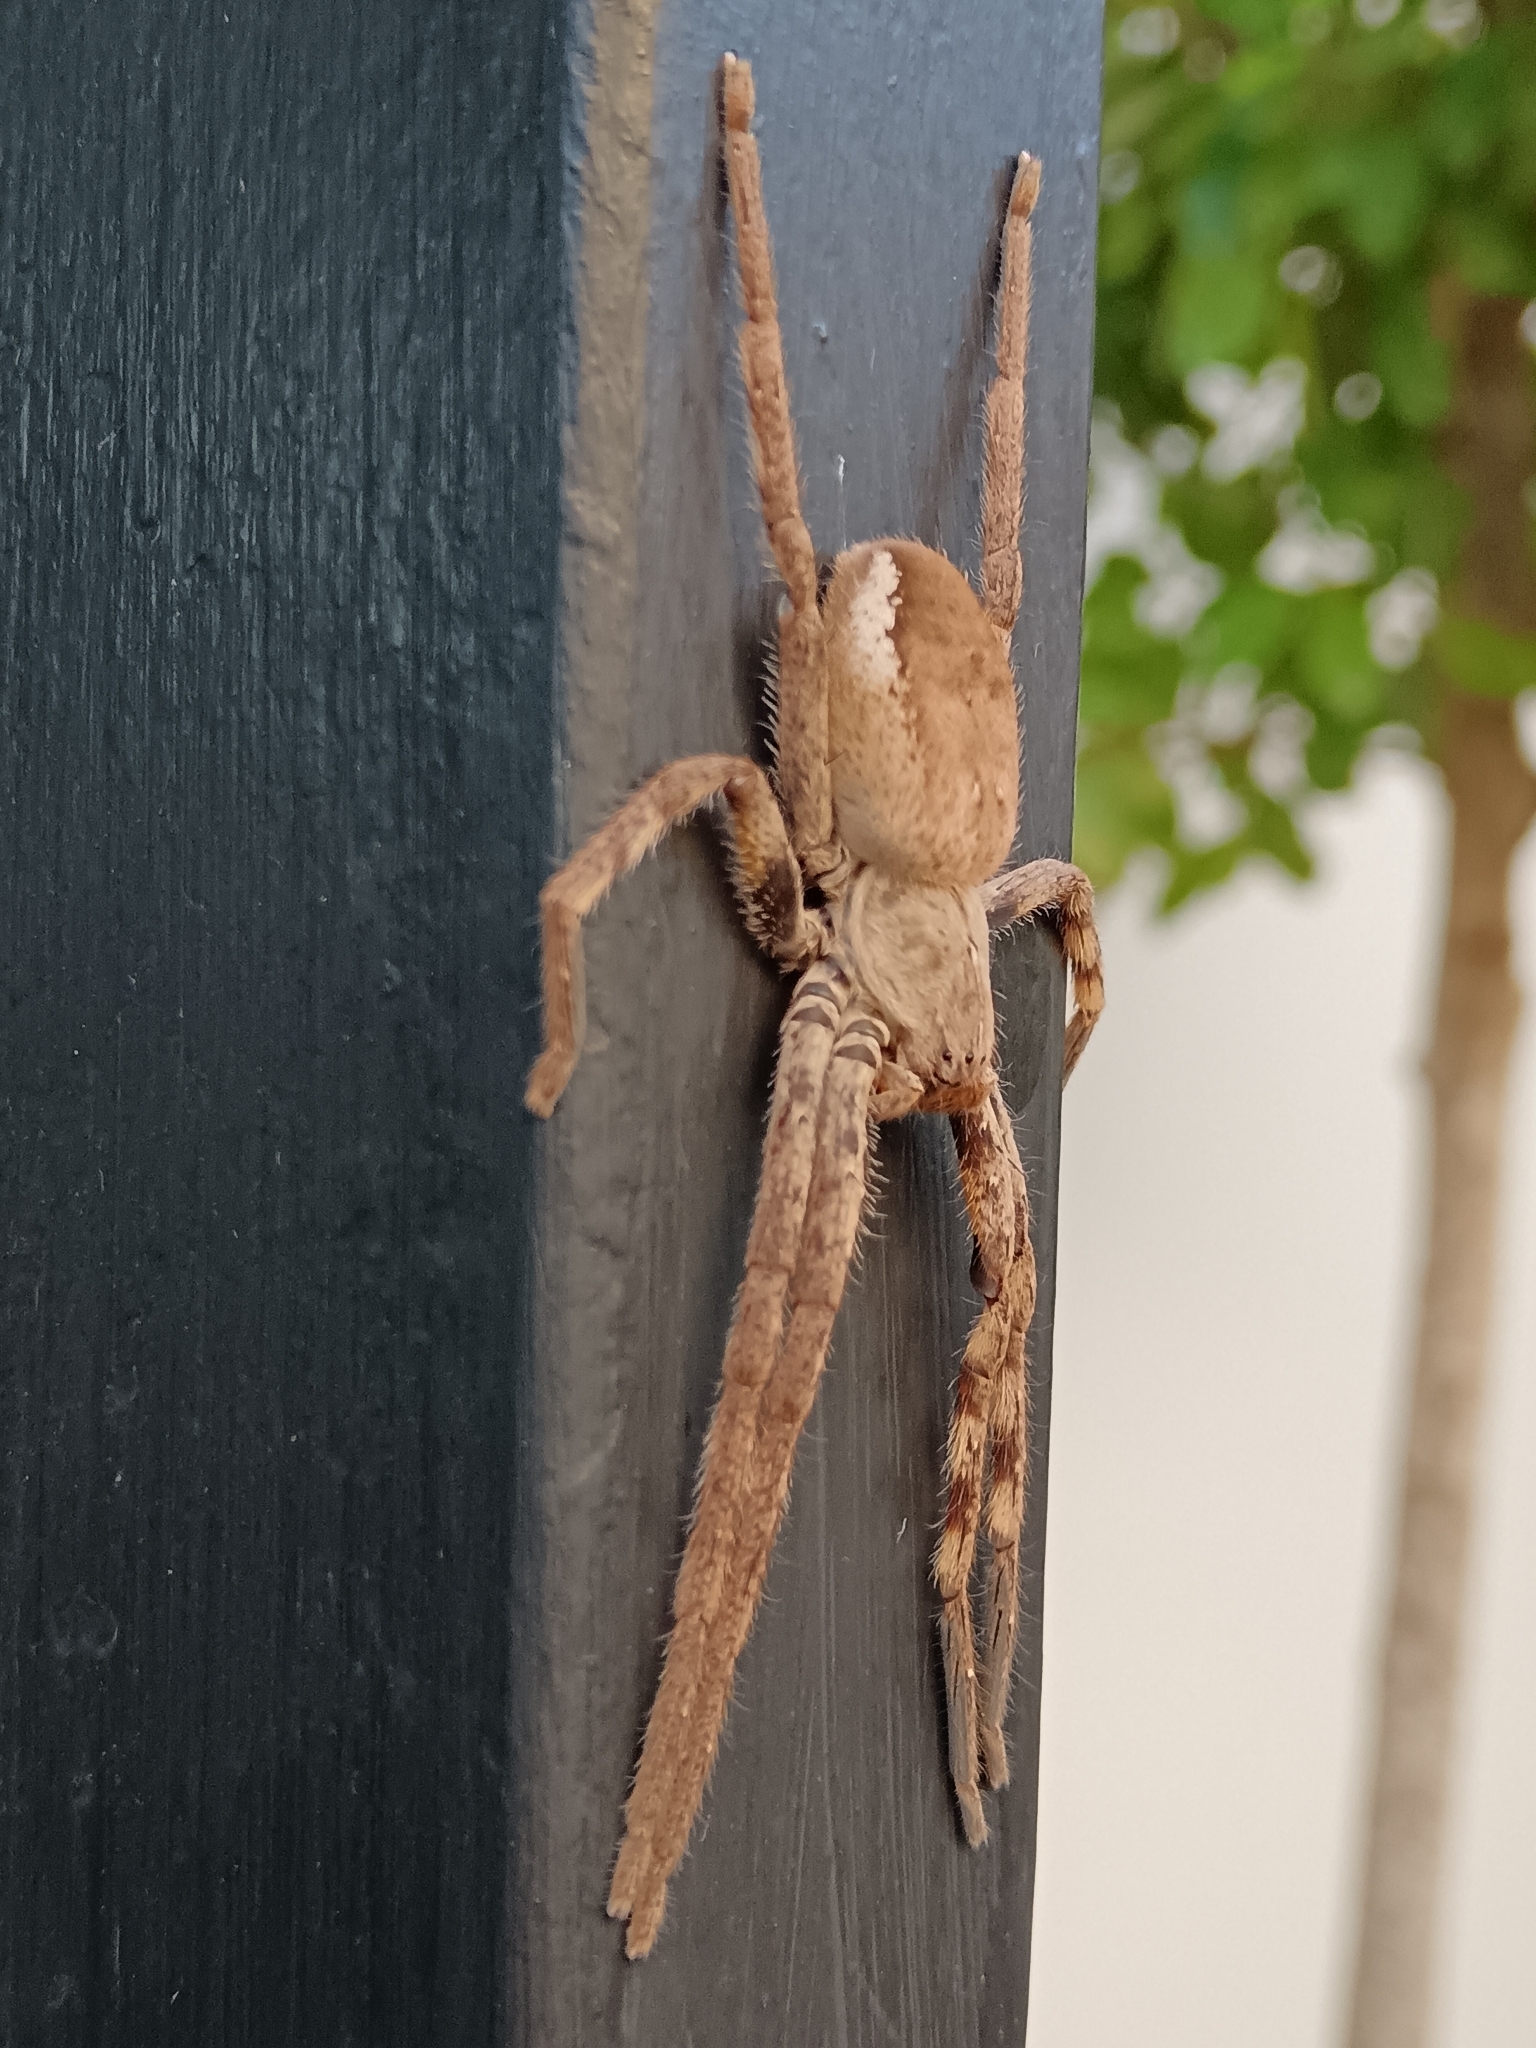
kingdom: Animalia
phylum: Arthropoda
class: Arachnida
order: Araneae
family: Sparassidae
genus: Palystes
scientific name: Palystes superciliosus
